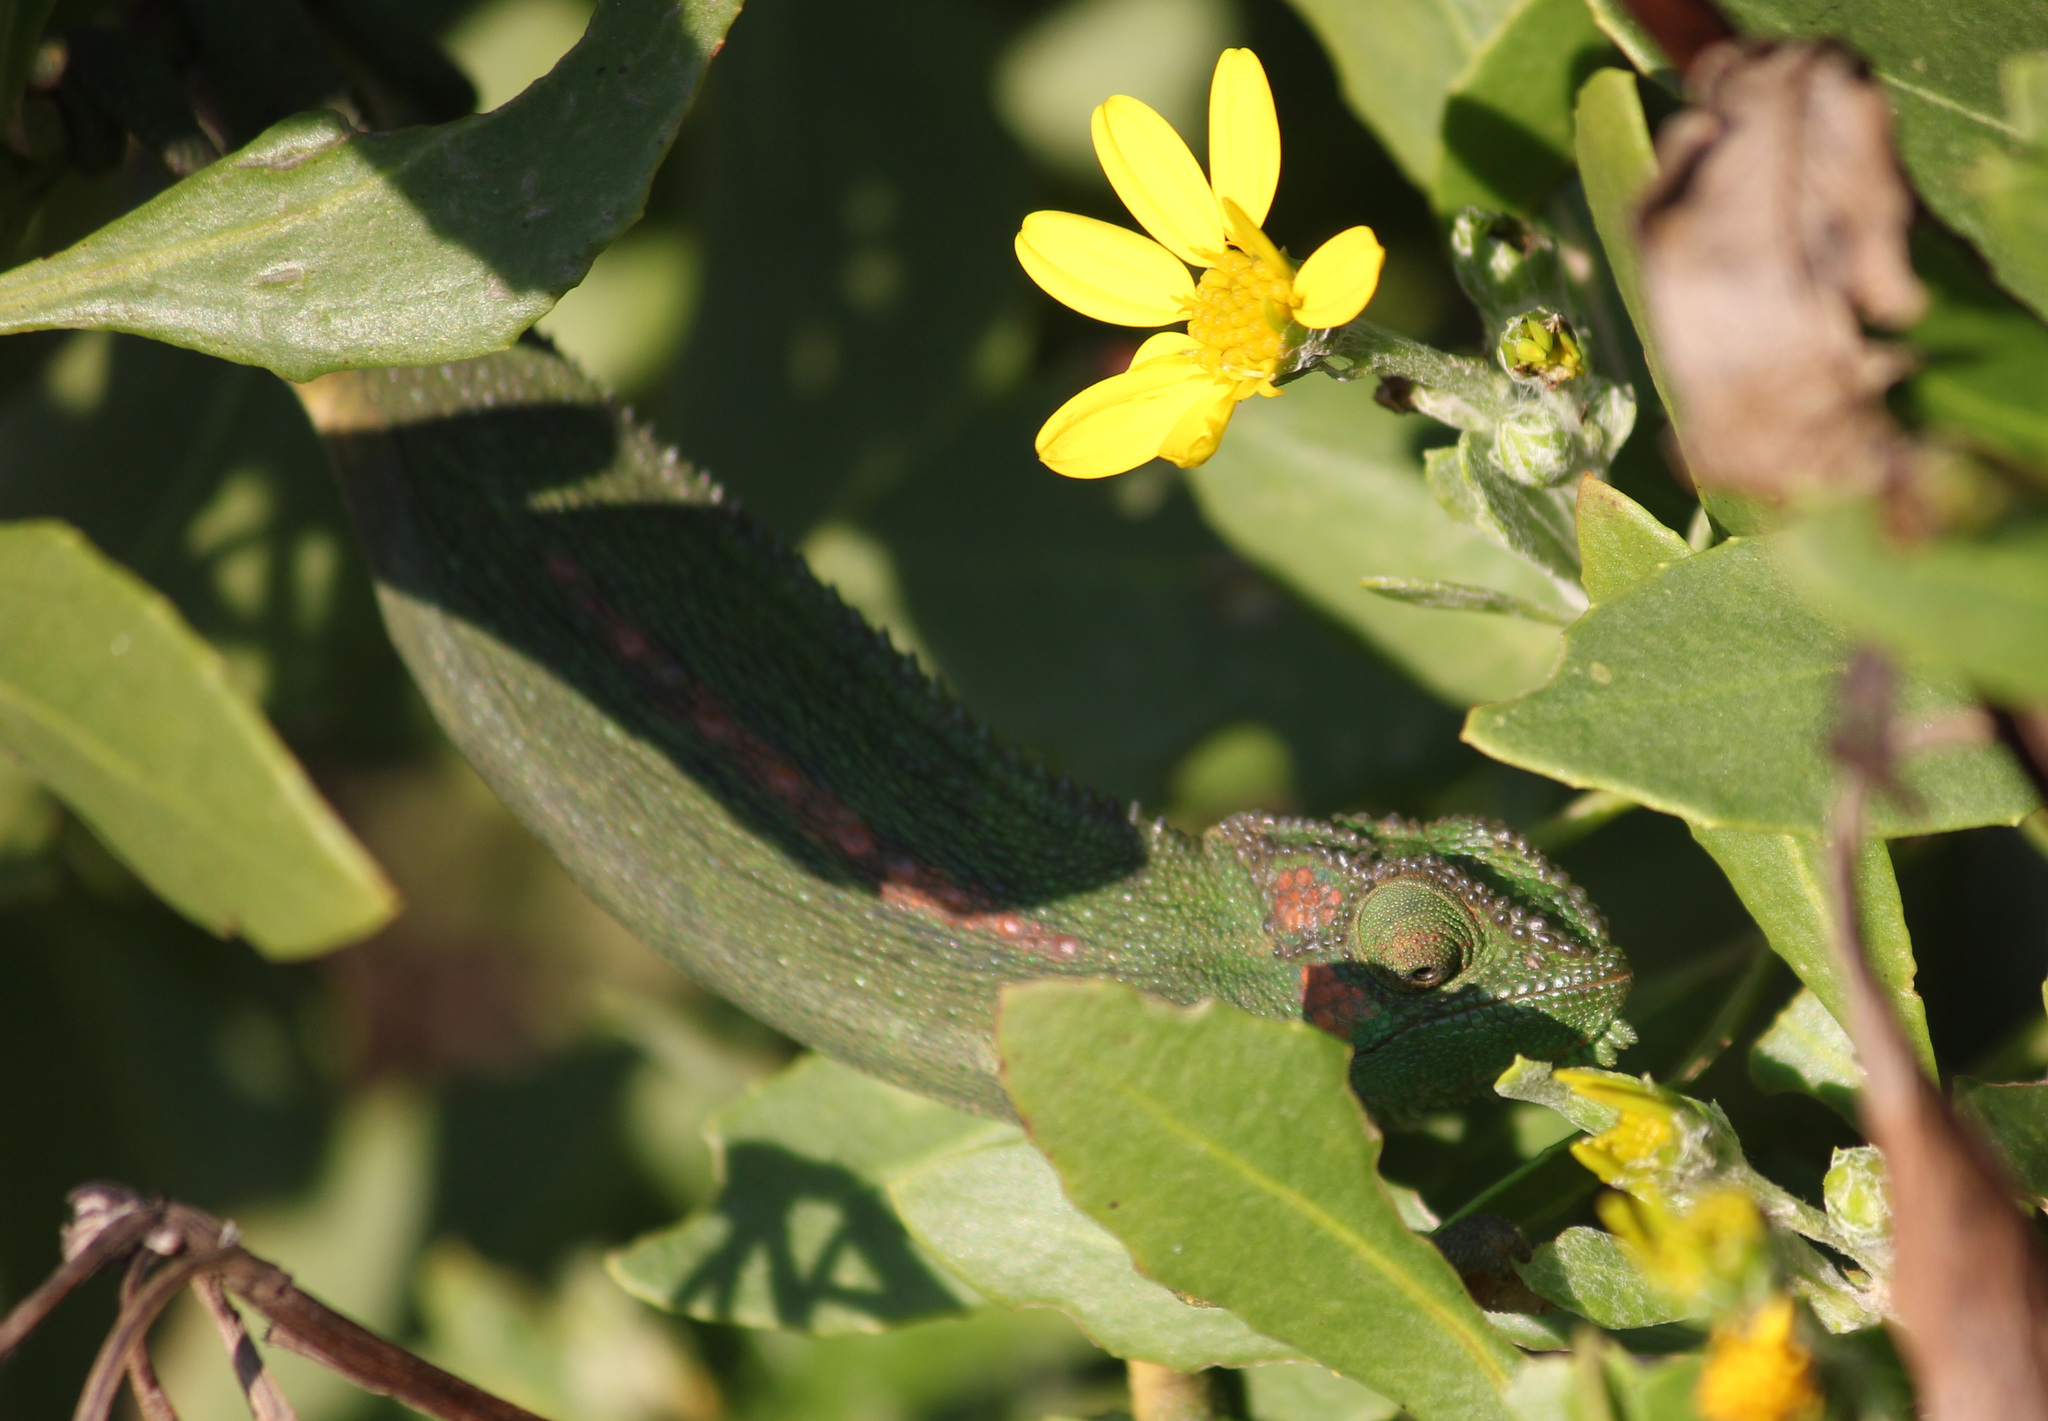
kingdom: Animalia
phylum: Chordata
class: Squamata
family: Chamaeleonidae
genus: Bradypodion
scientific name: Bradypodion pumilum
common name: Cape dwarf chameleon
